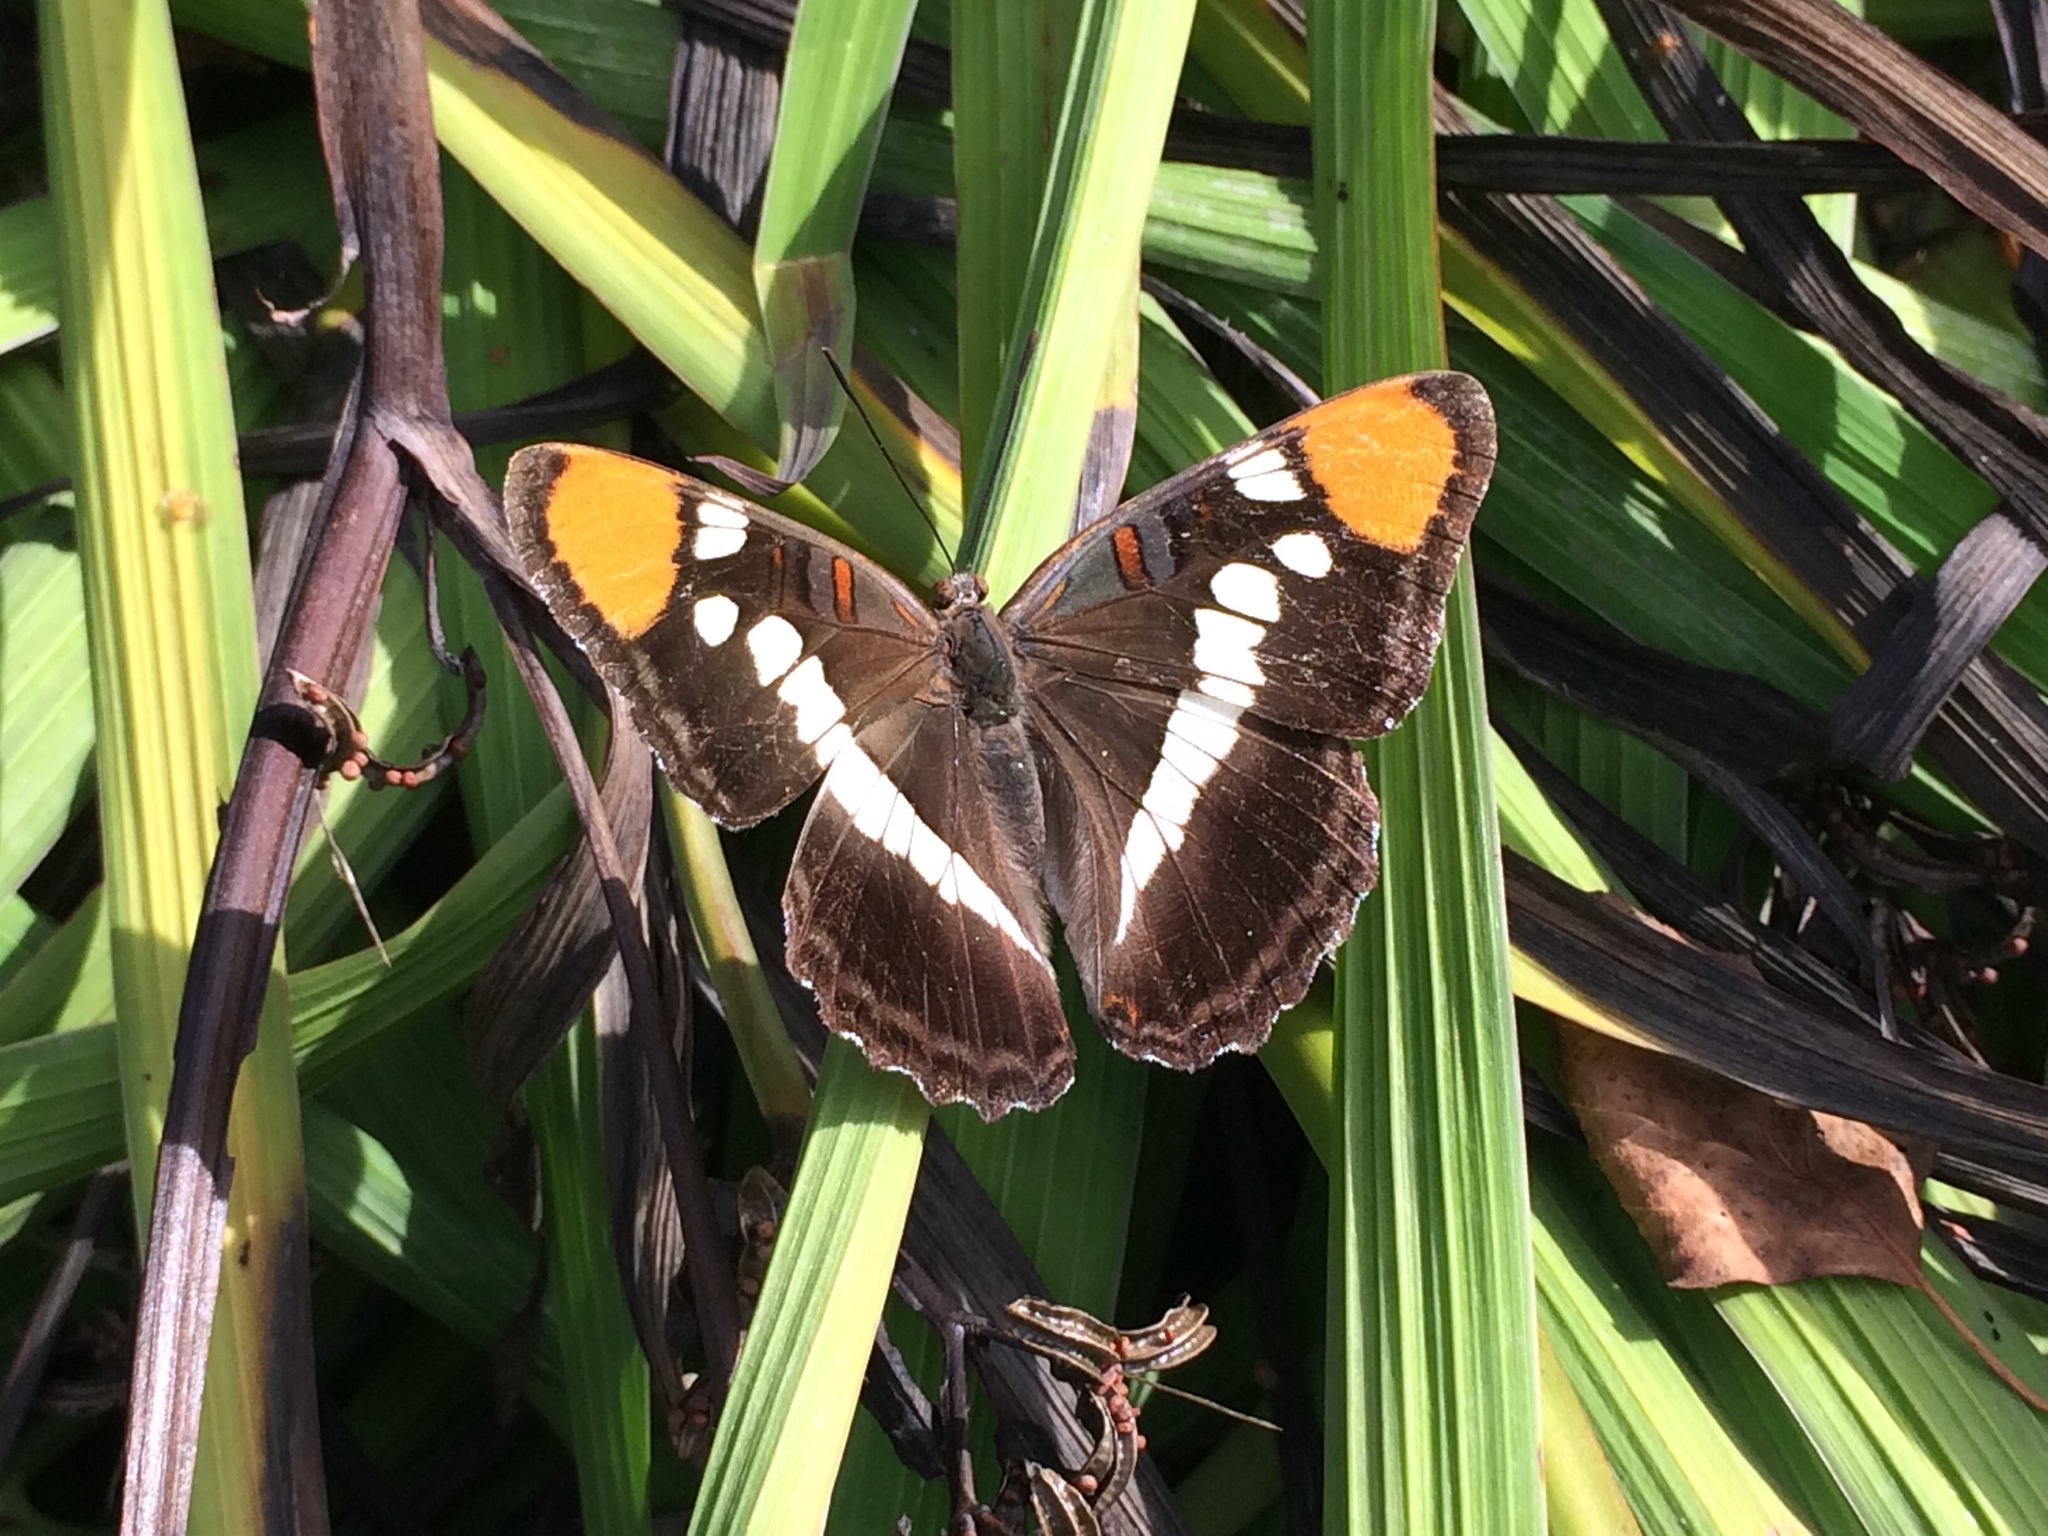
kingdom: Animalia
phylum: Arthropoda
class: Insecta
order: Lepidoptera
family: Nymphalidae
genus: Limenitis
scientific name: Limenitis bredowii
